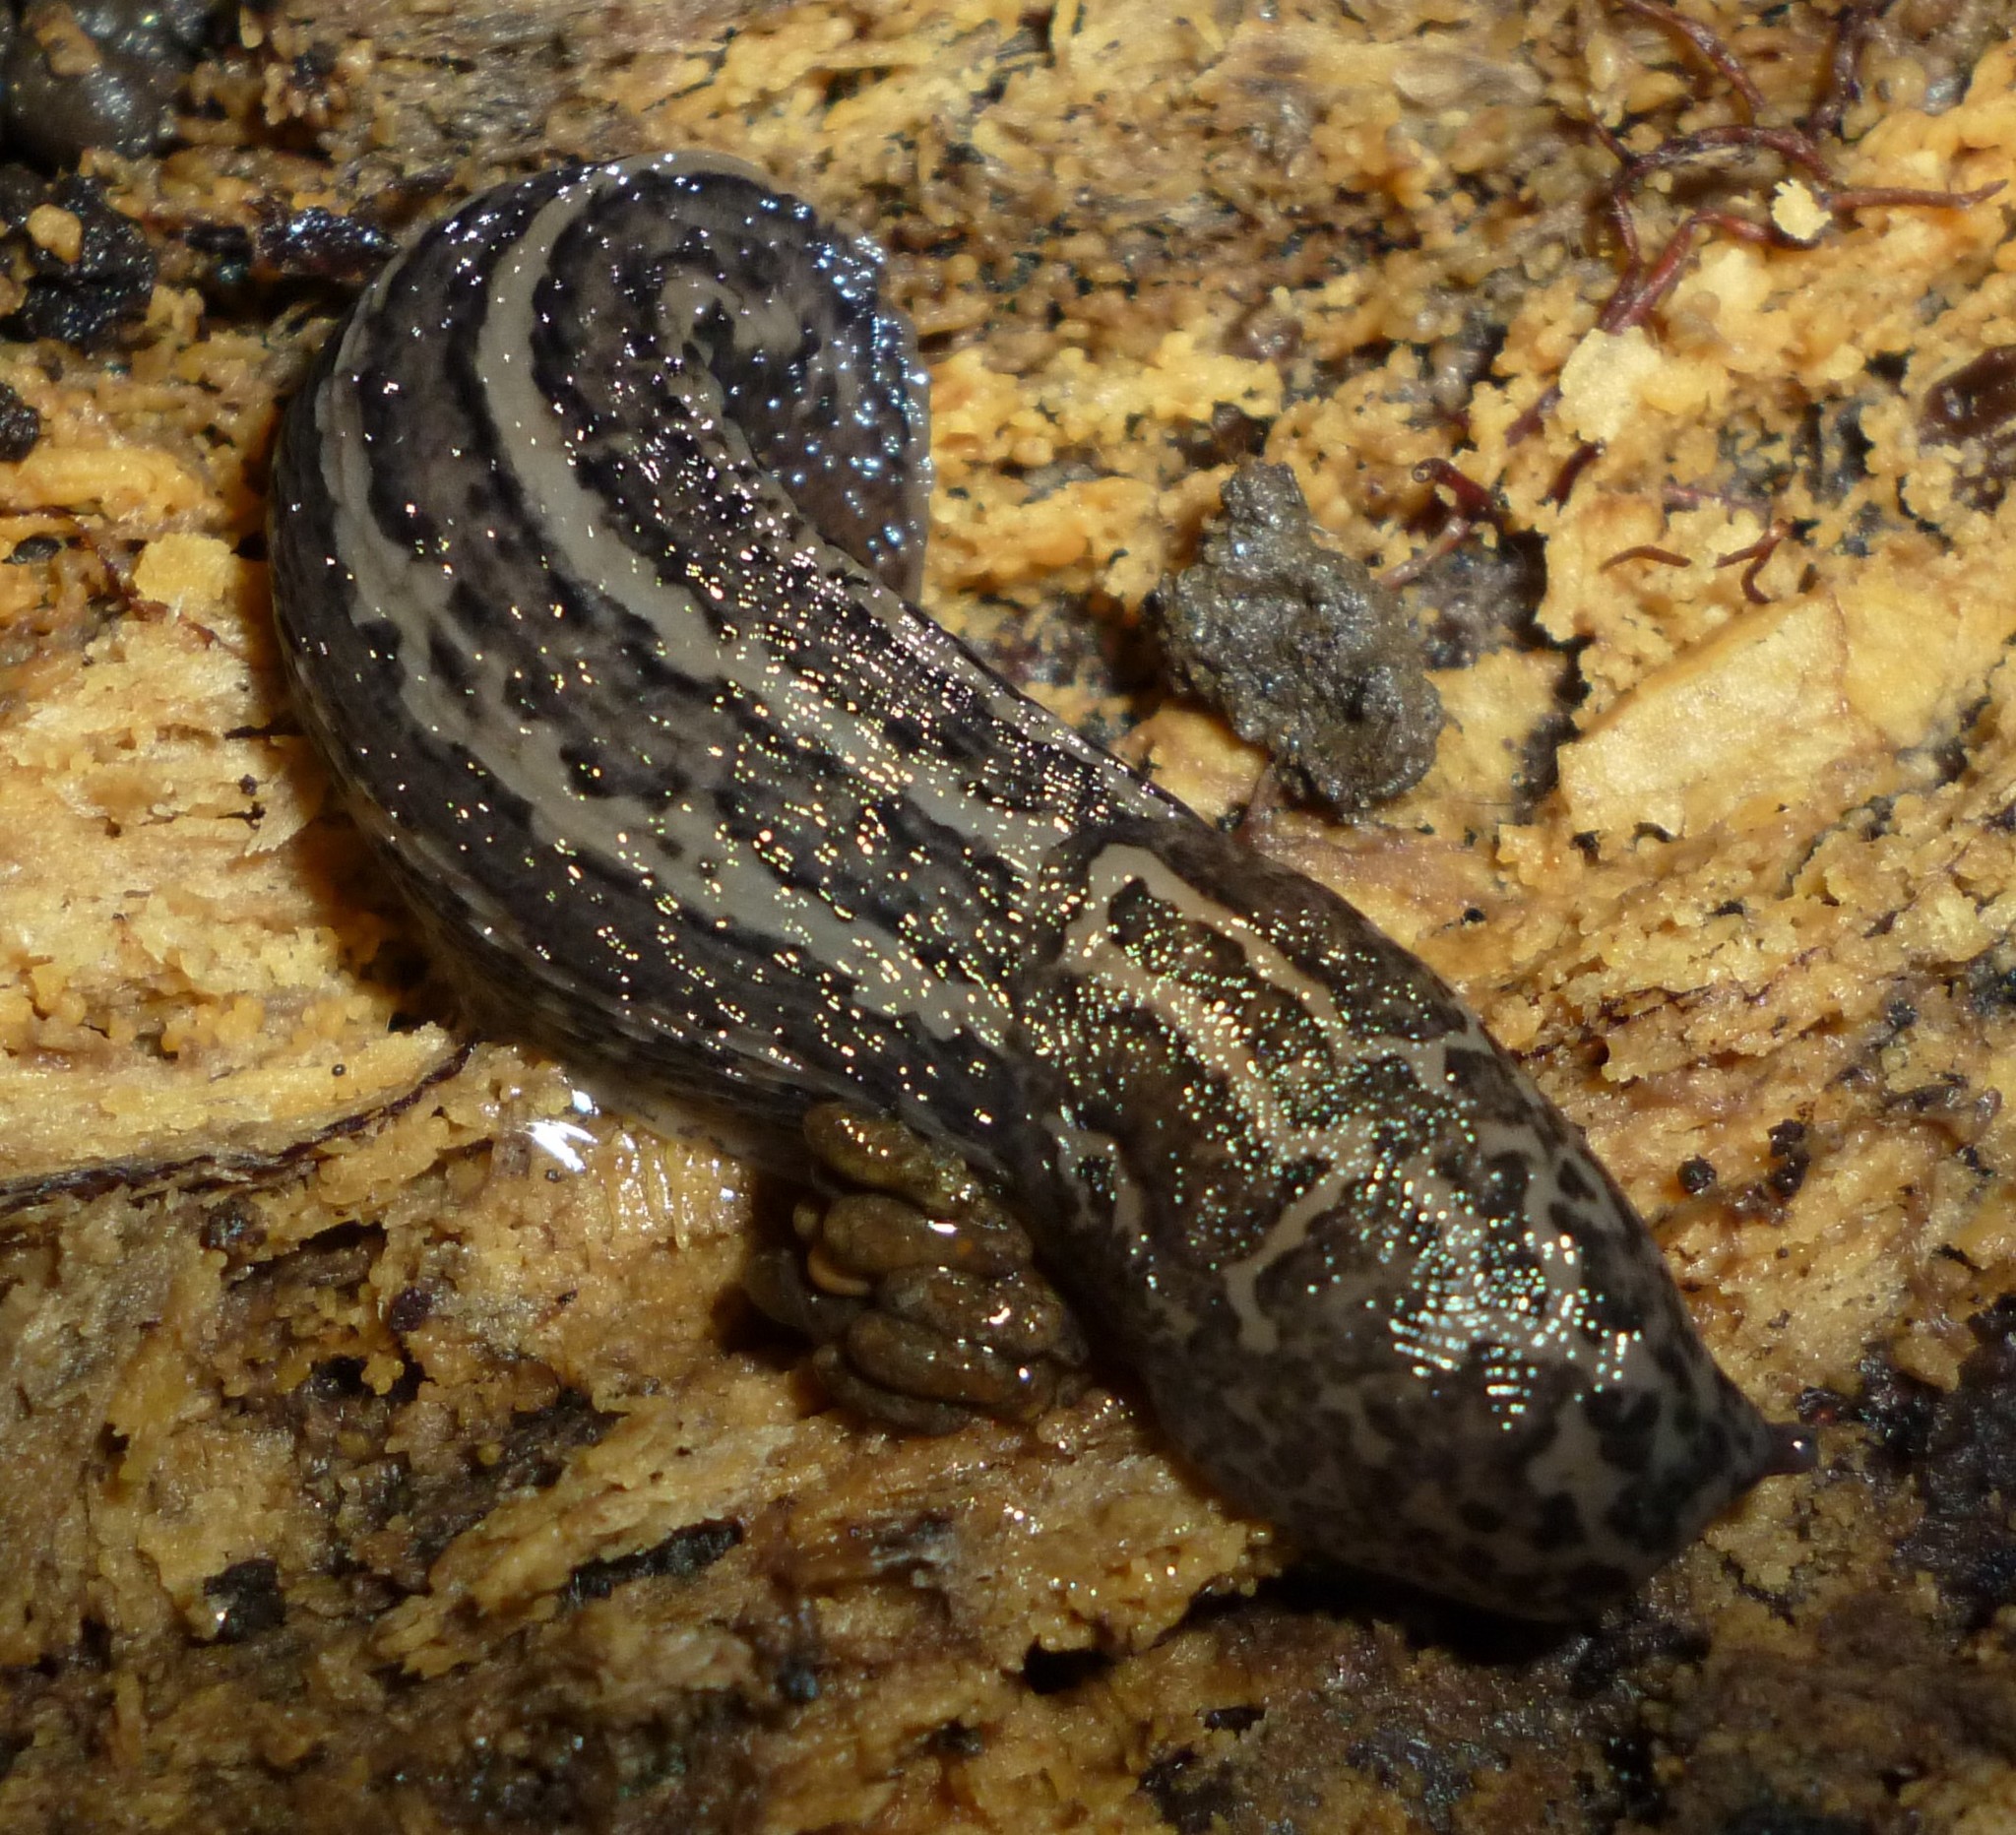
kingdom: Animalia
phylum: Mollusca
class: Gastropoda
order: Stylommatophora
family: Limacidae
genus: Limax
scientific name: Limax maximus
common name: Great grey slug
